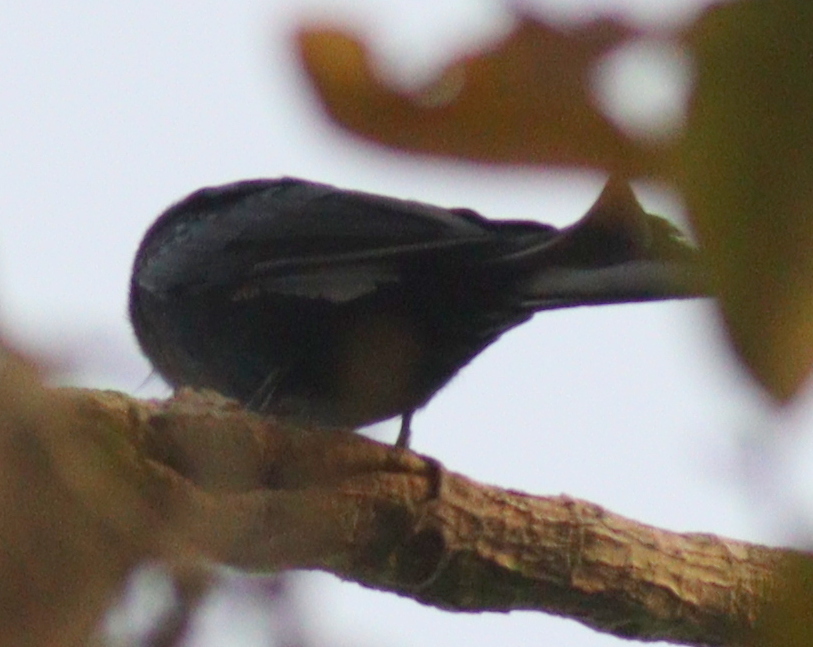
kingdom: Animalia
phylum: Chordata
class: Aves
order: Passeriformes
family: Dicruridae
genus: Dicrurus
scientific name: Dicrurus modestus
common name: Velvet-mantled drongo
